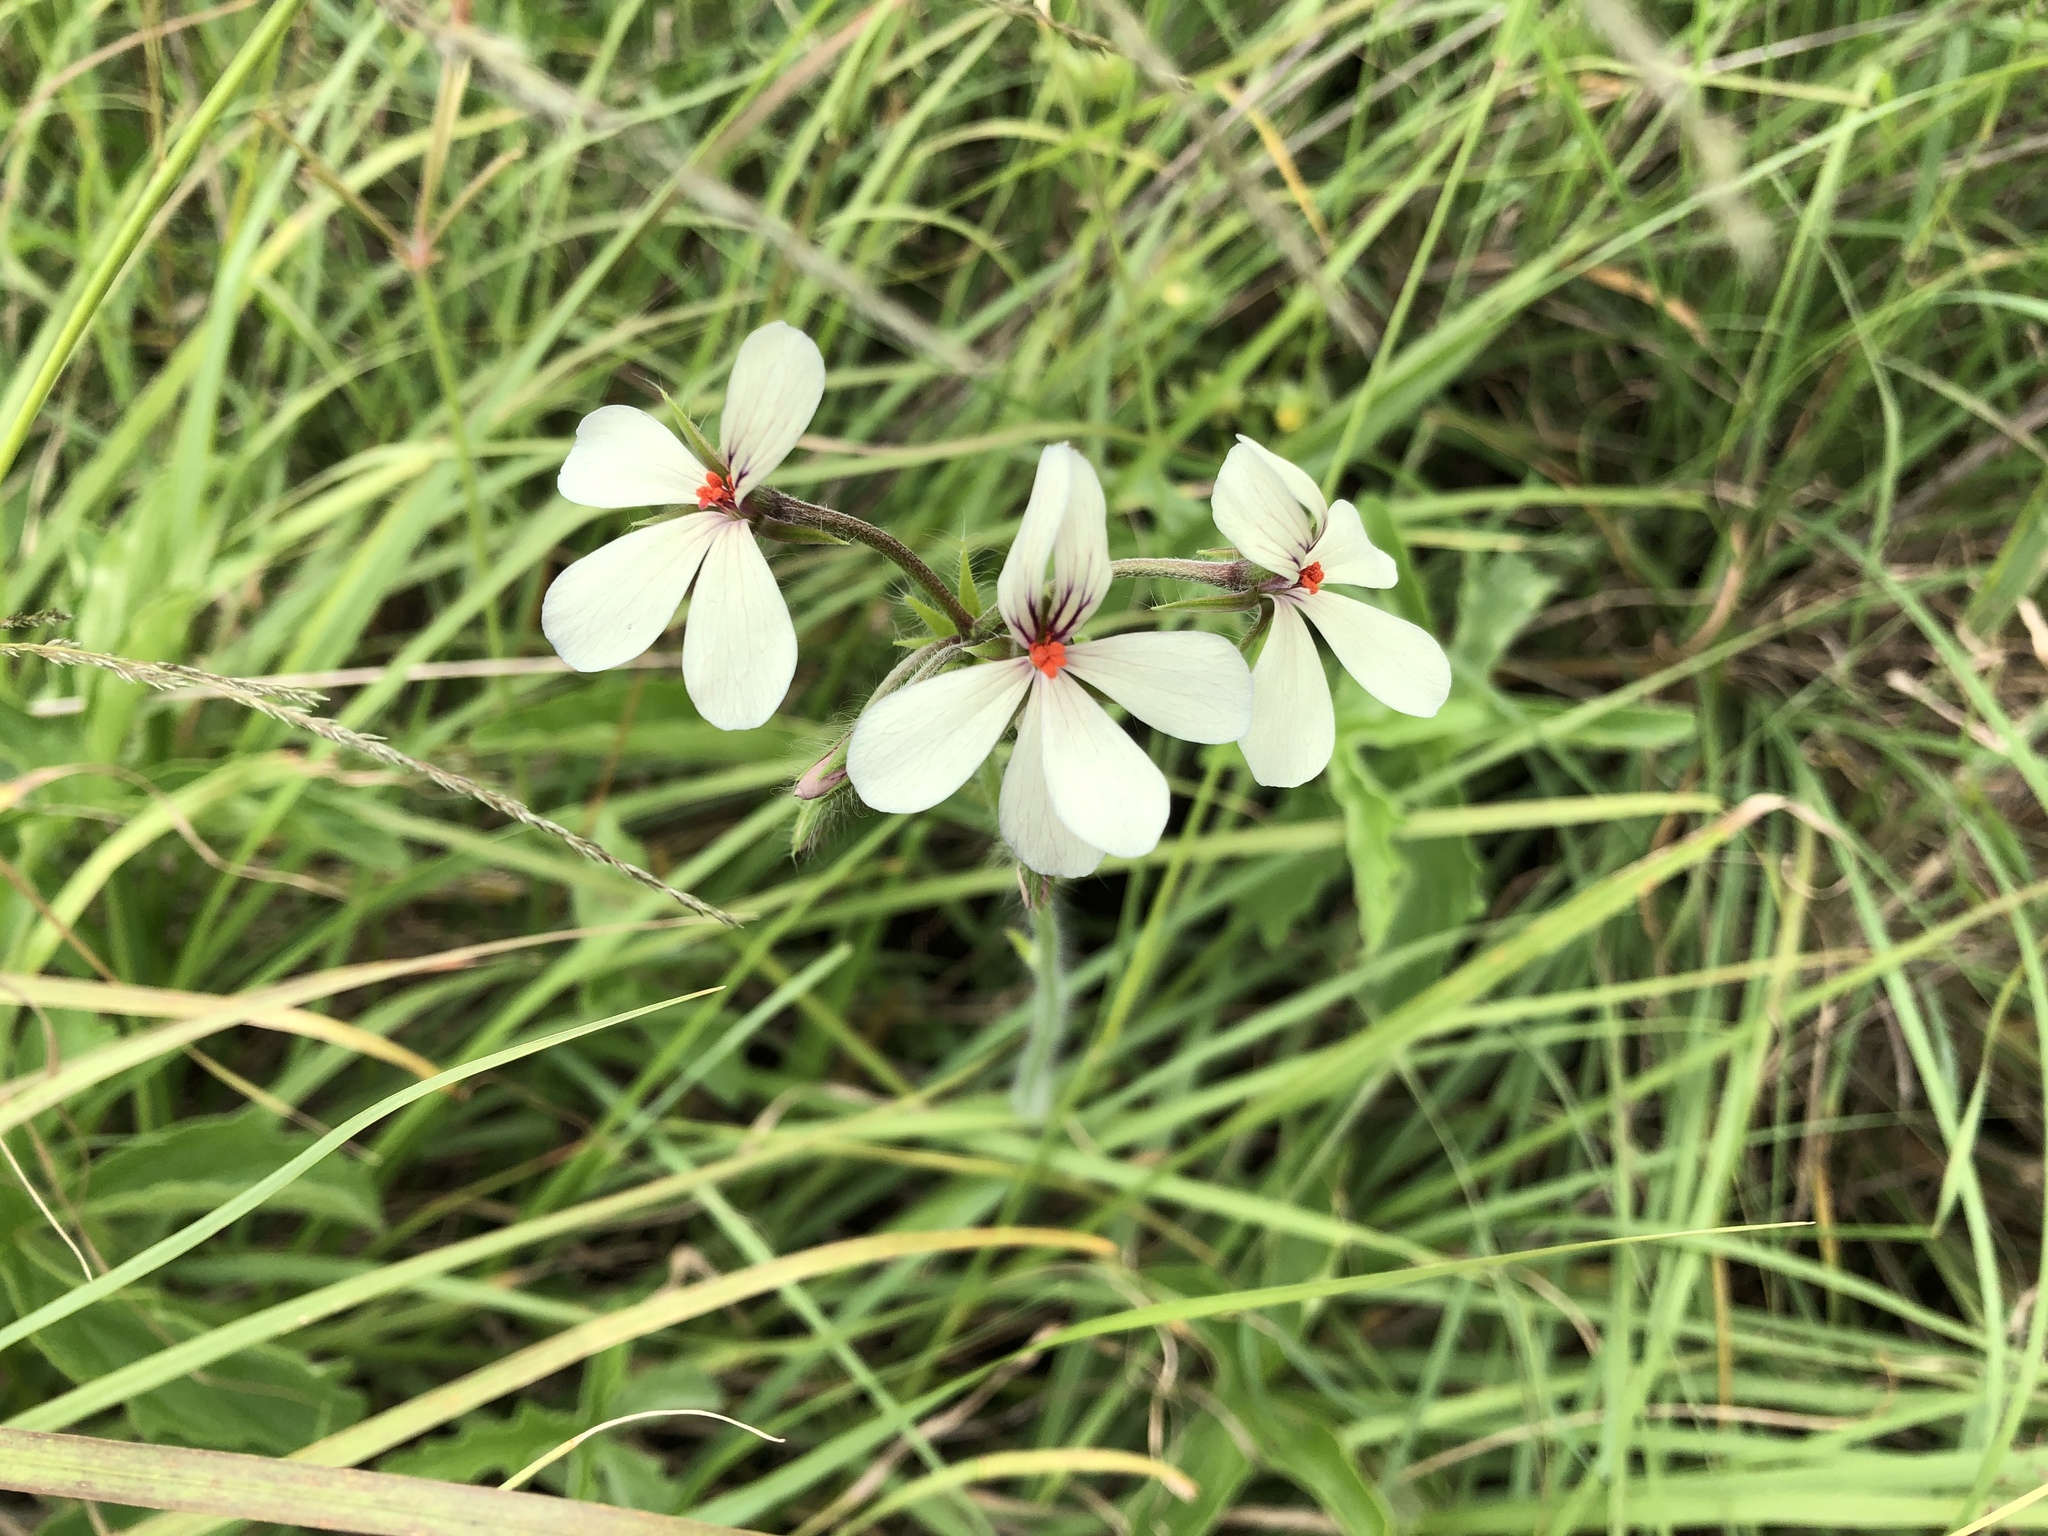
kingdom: Plantae
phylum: Tracheophyta
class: Magnoliopsida
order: Geraniales
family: Geraniaceae
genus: Pelargonium
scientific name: Pelargonium quinquelobatum
